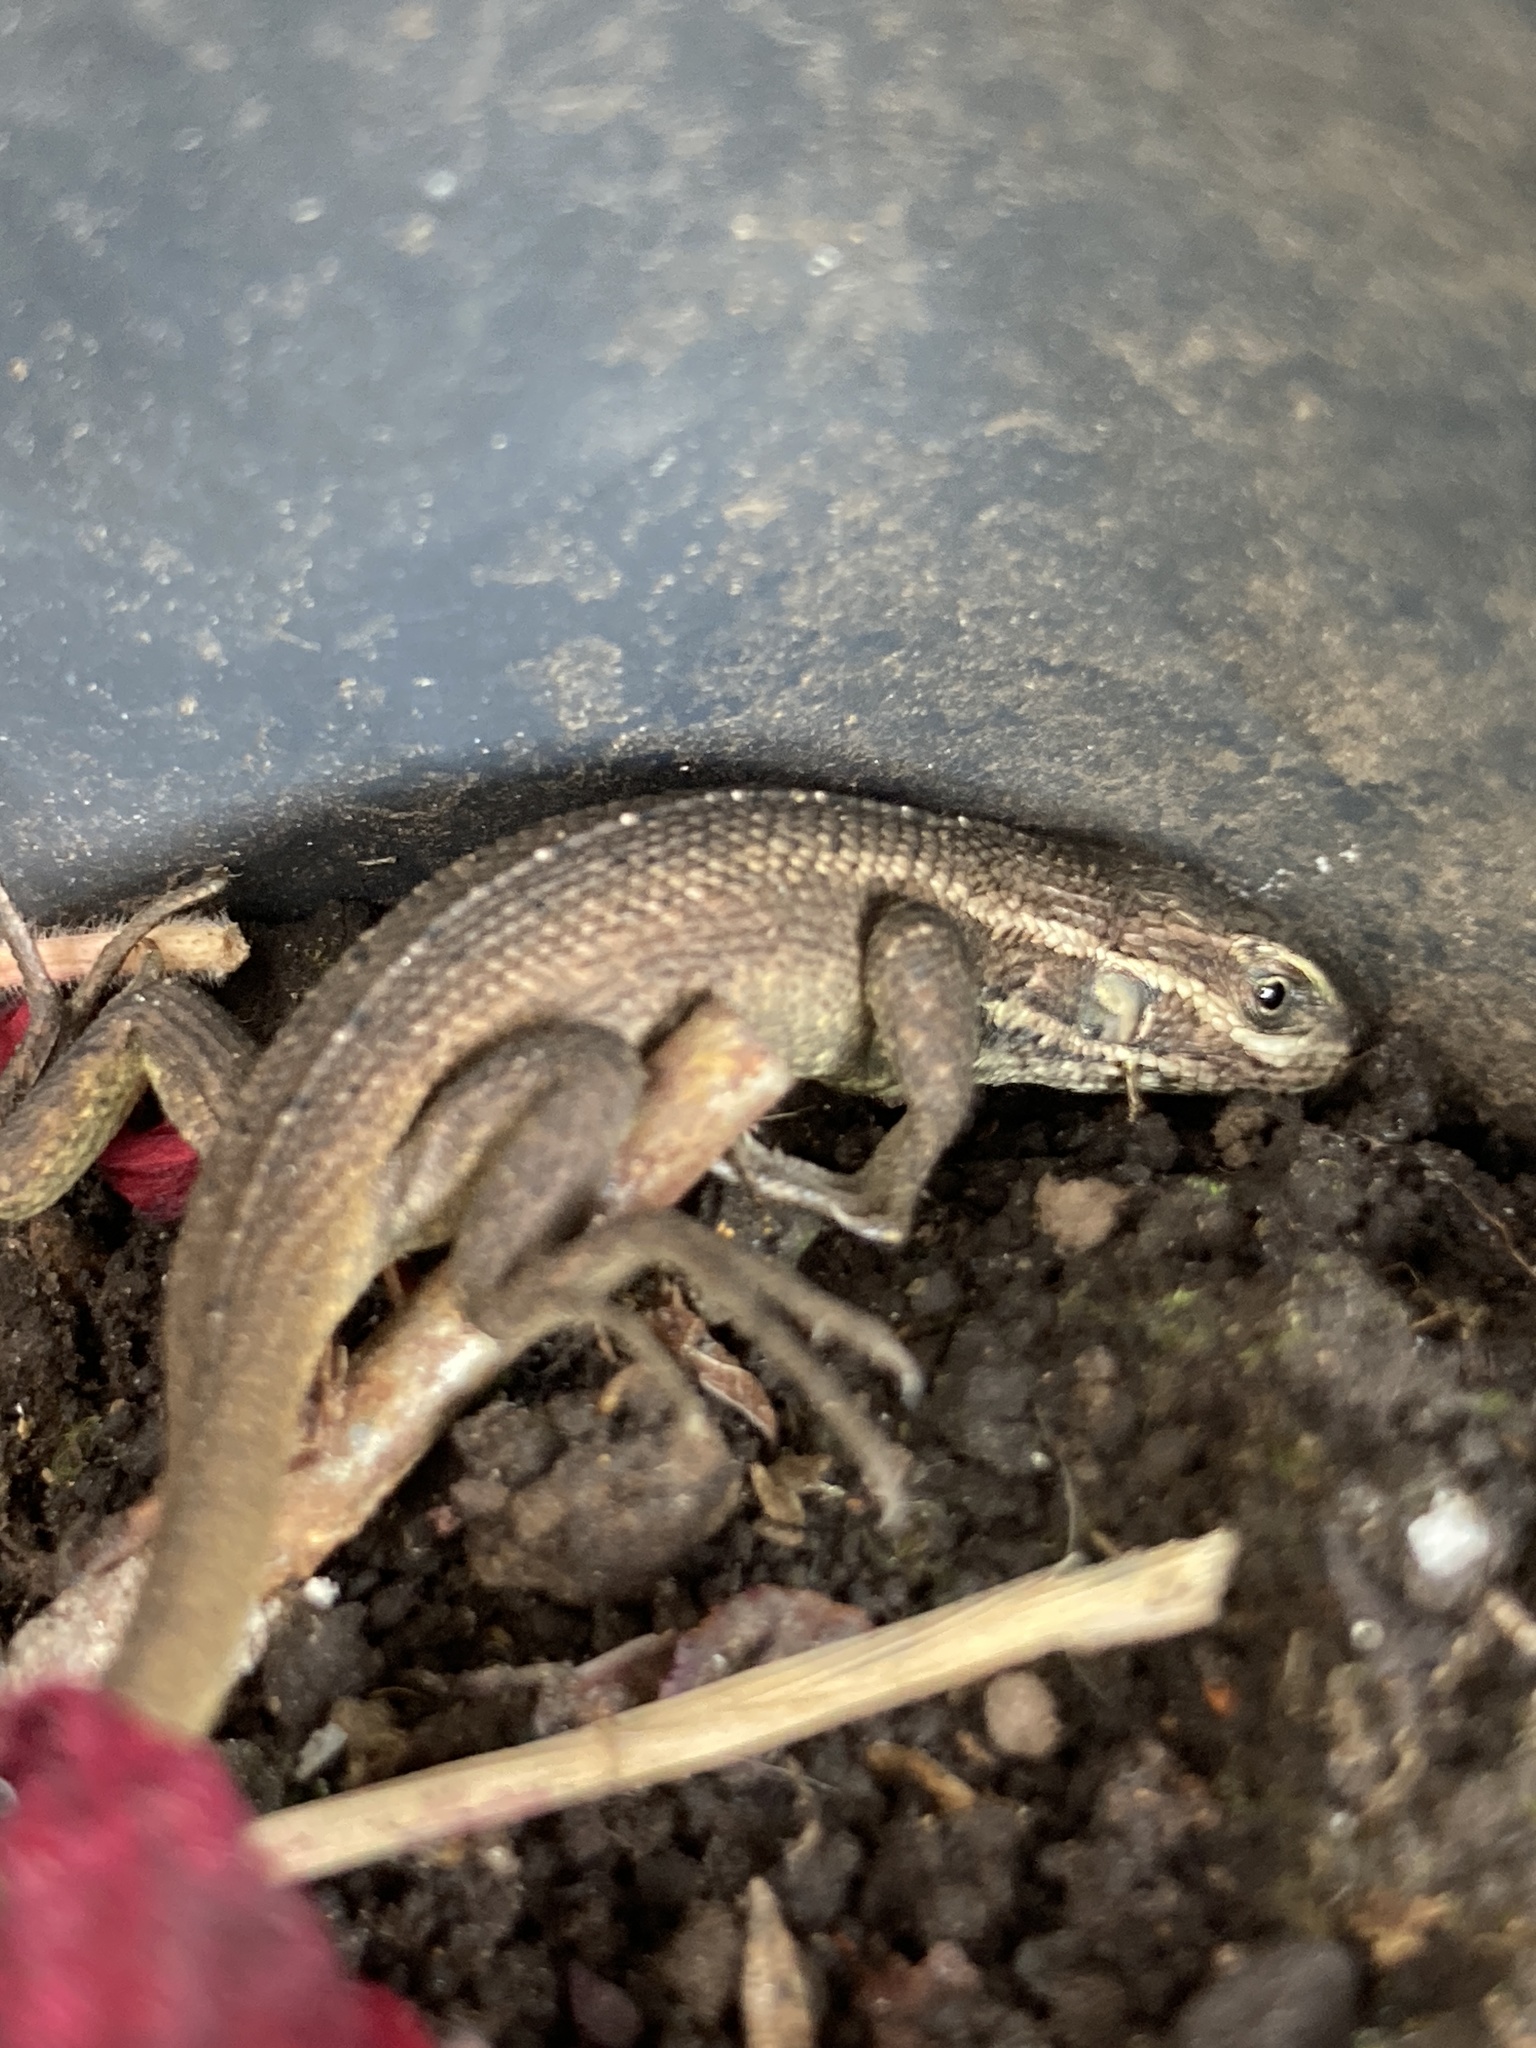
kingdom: Animalia
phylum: Chordata
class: Squamata
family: Tropiduridae
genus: Stenocercus
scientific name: Stenocercus trachycephalus
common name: Duméril's whorltail iguana
